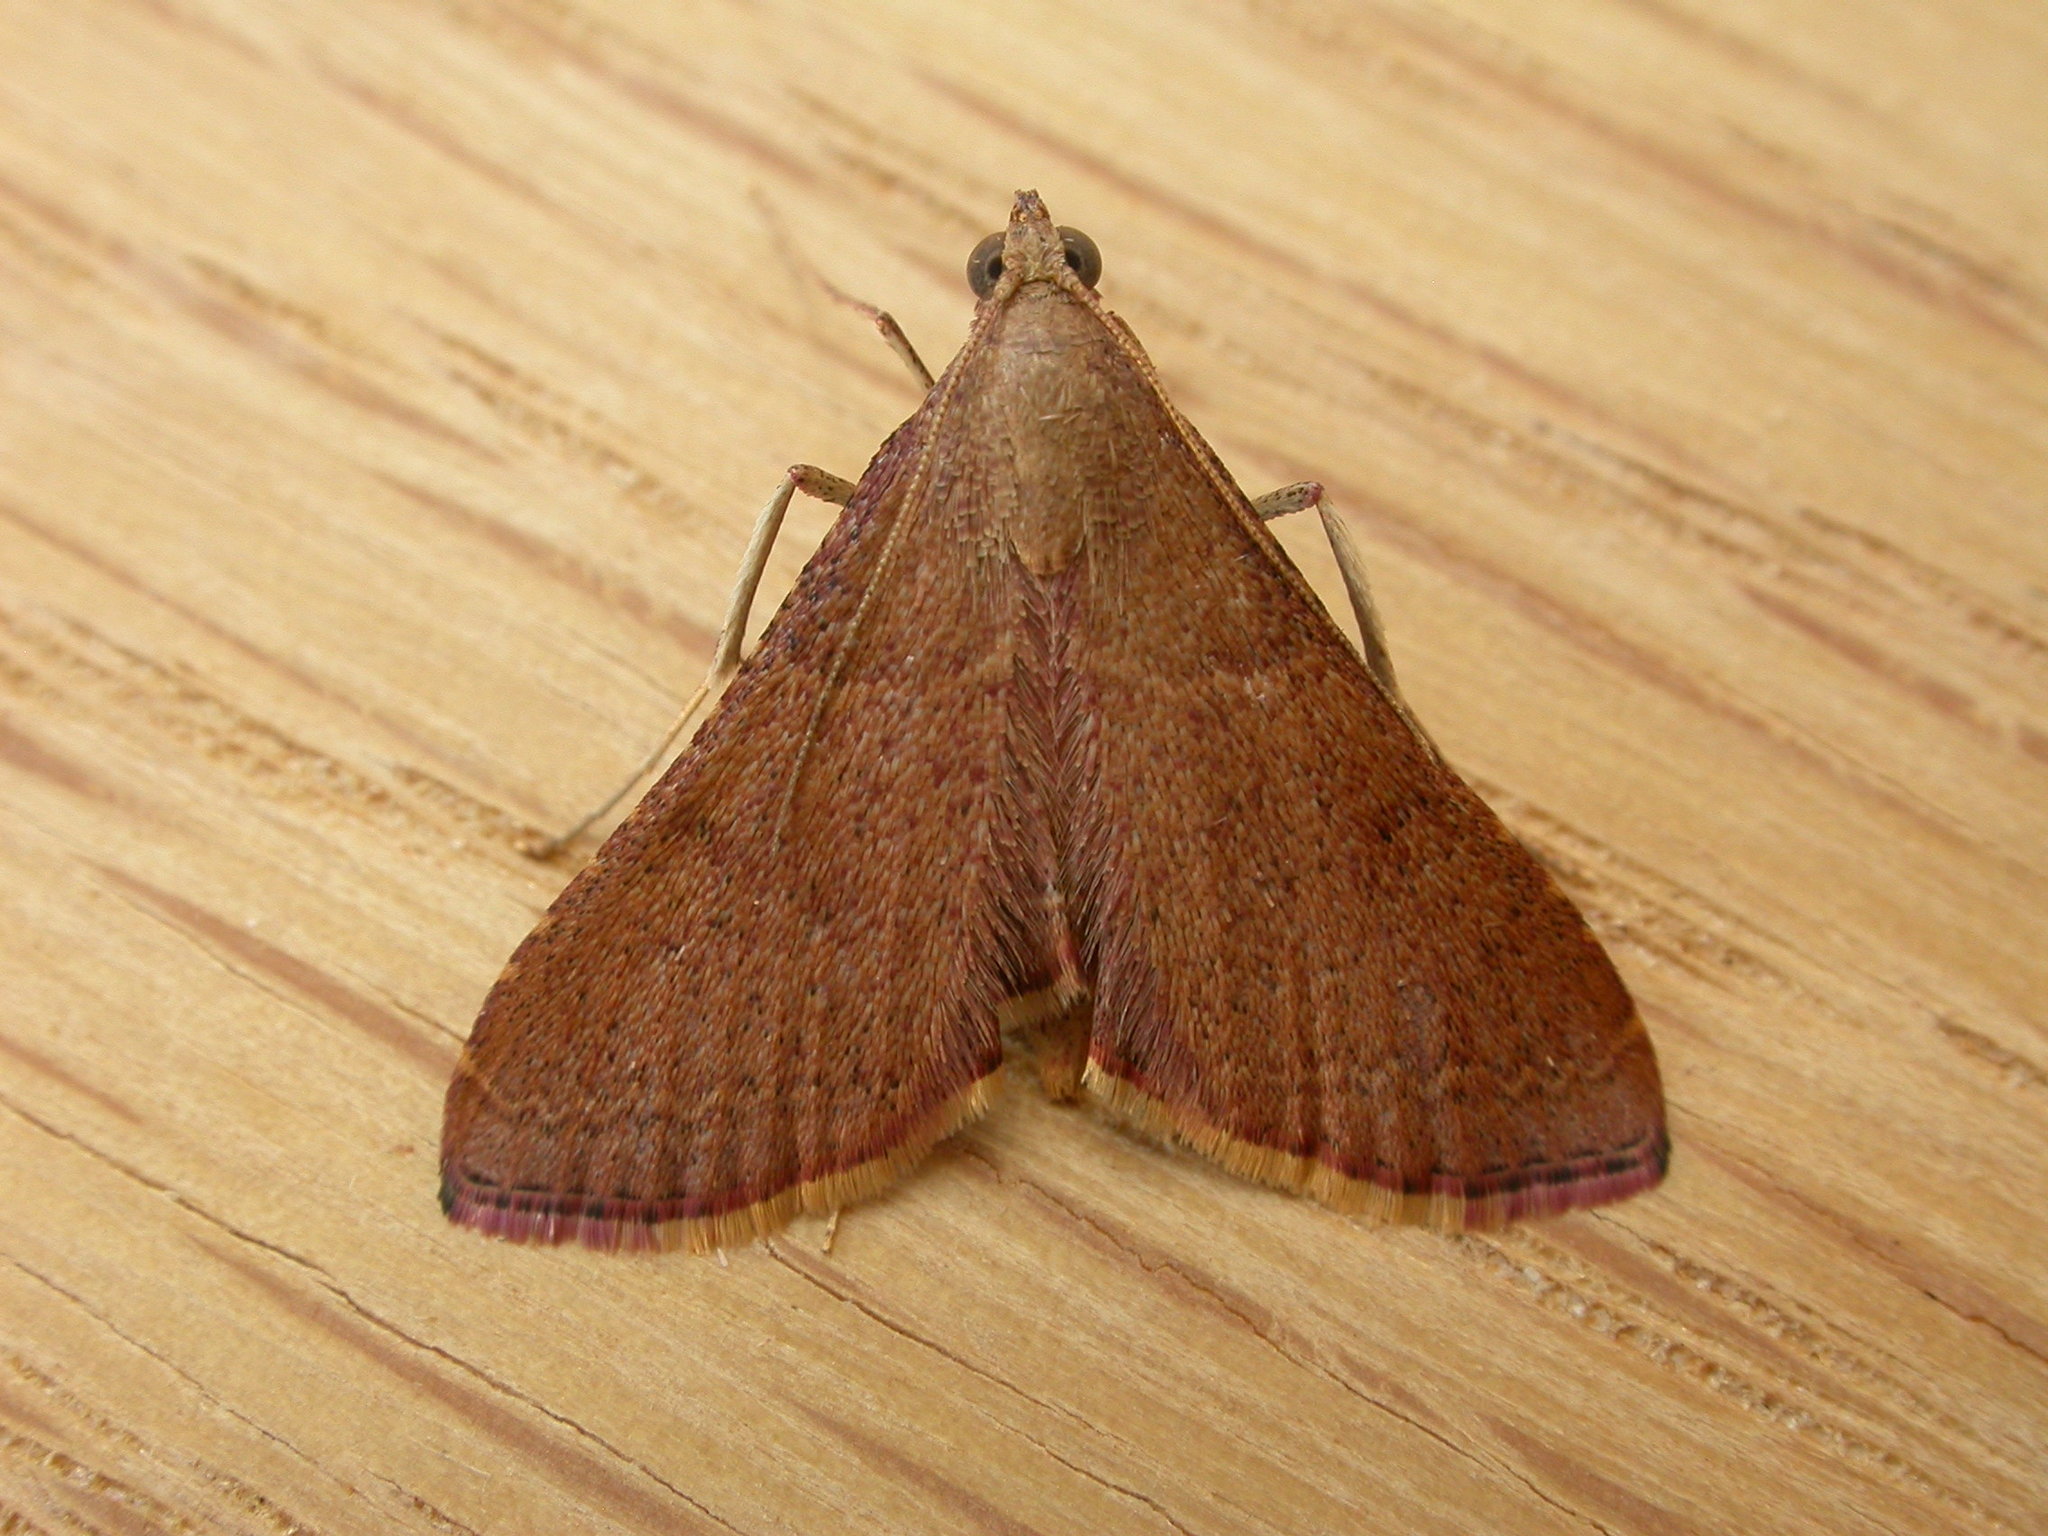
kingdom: Animalia
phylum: Arthropoda
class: Insecta
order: Lepidoptera
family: Pyralidae
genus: Endotricha
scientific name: Endotricha ignealis
